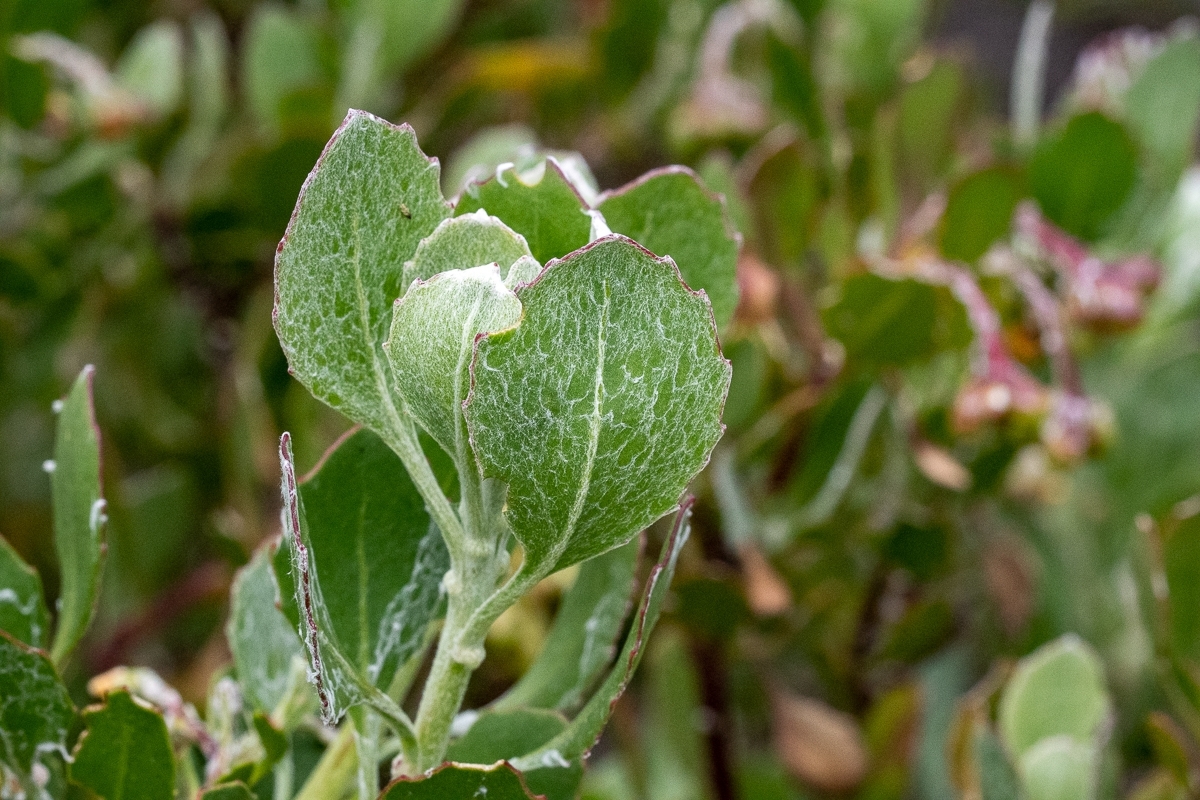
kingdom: Plantae
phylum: Tracheophyta
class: Magnoliopsida
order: Asterales
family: Asteraceae
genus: Osteospermum
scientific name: Osteospermum moniliferum
